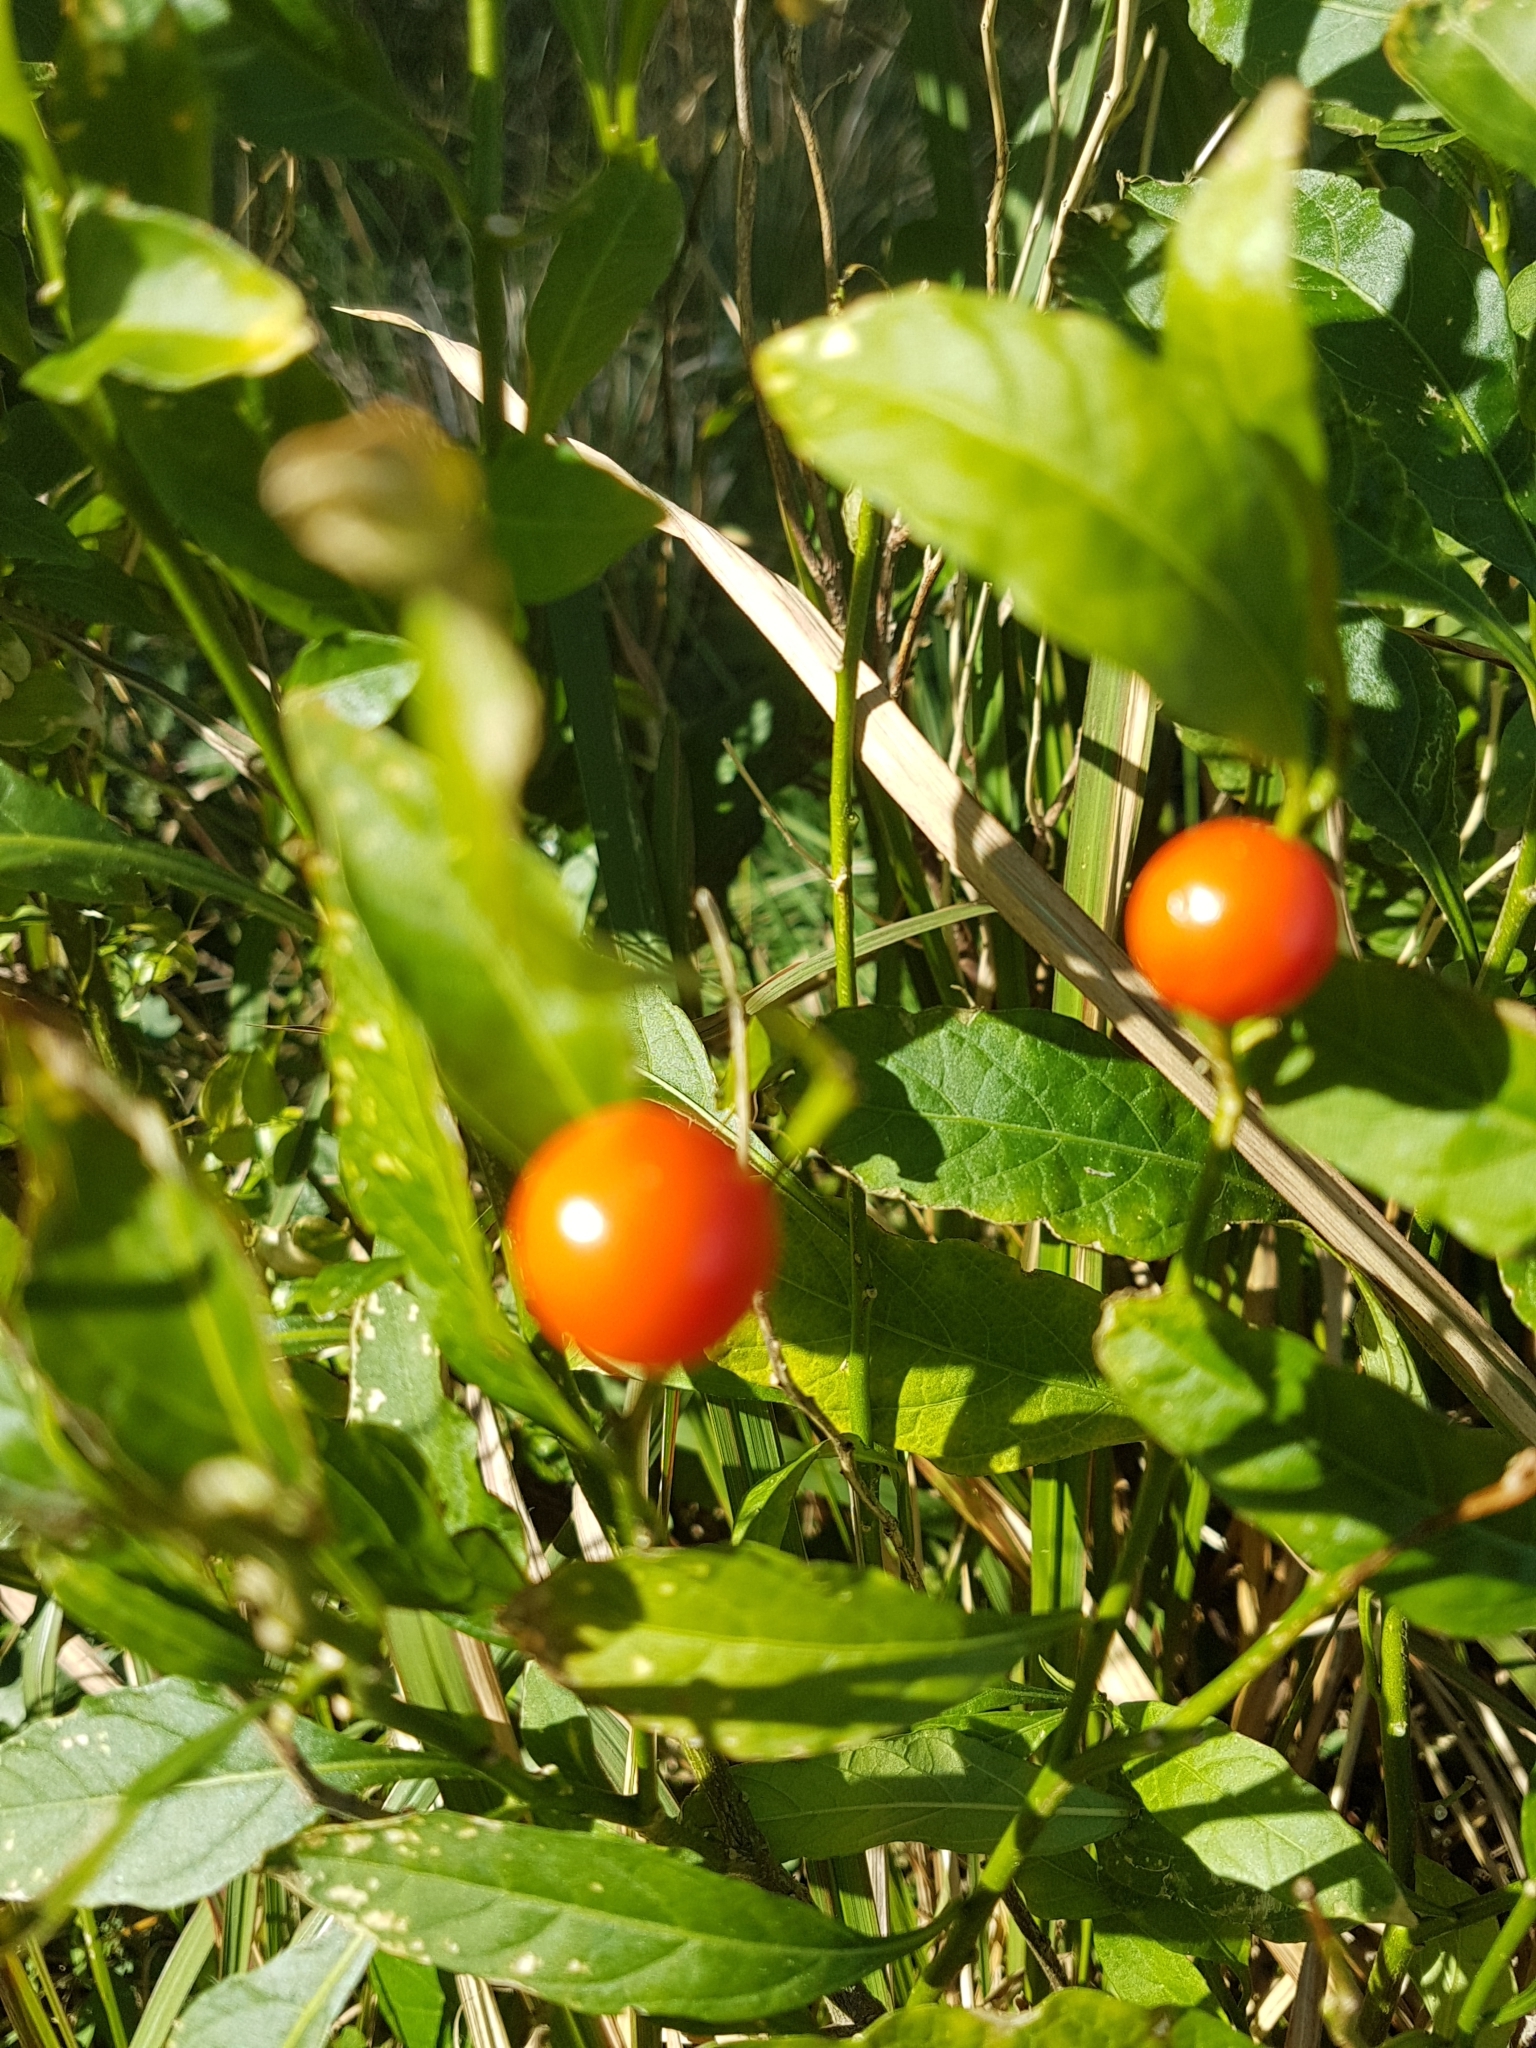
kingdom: Plantae
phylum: Tracheophyta
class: Magnoliopsida
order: Solanales
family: Solanaceae
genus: Solanum
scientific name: Solanum pseudocapsicum
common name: Jerusalem cherry
